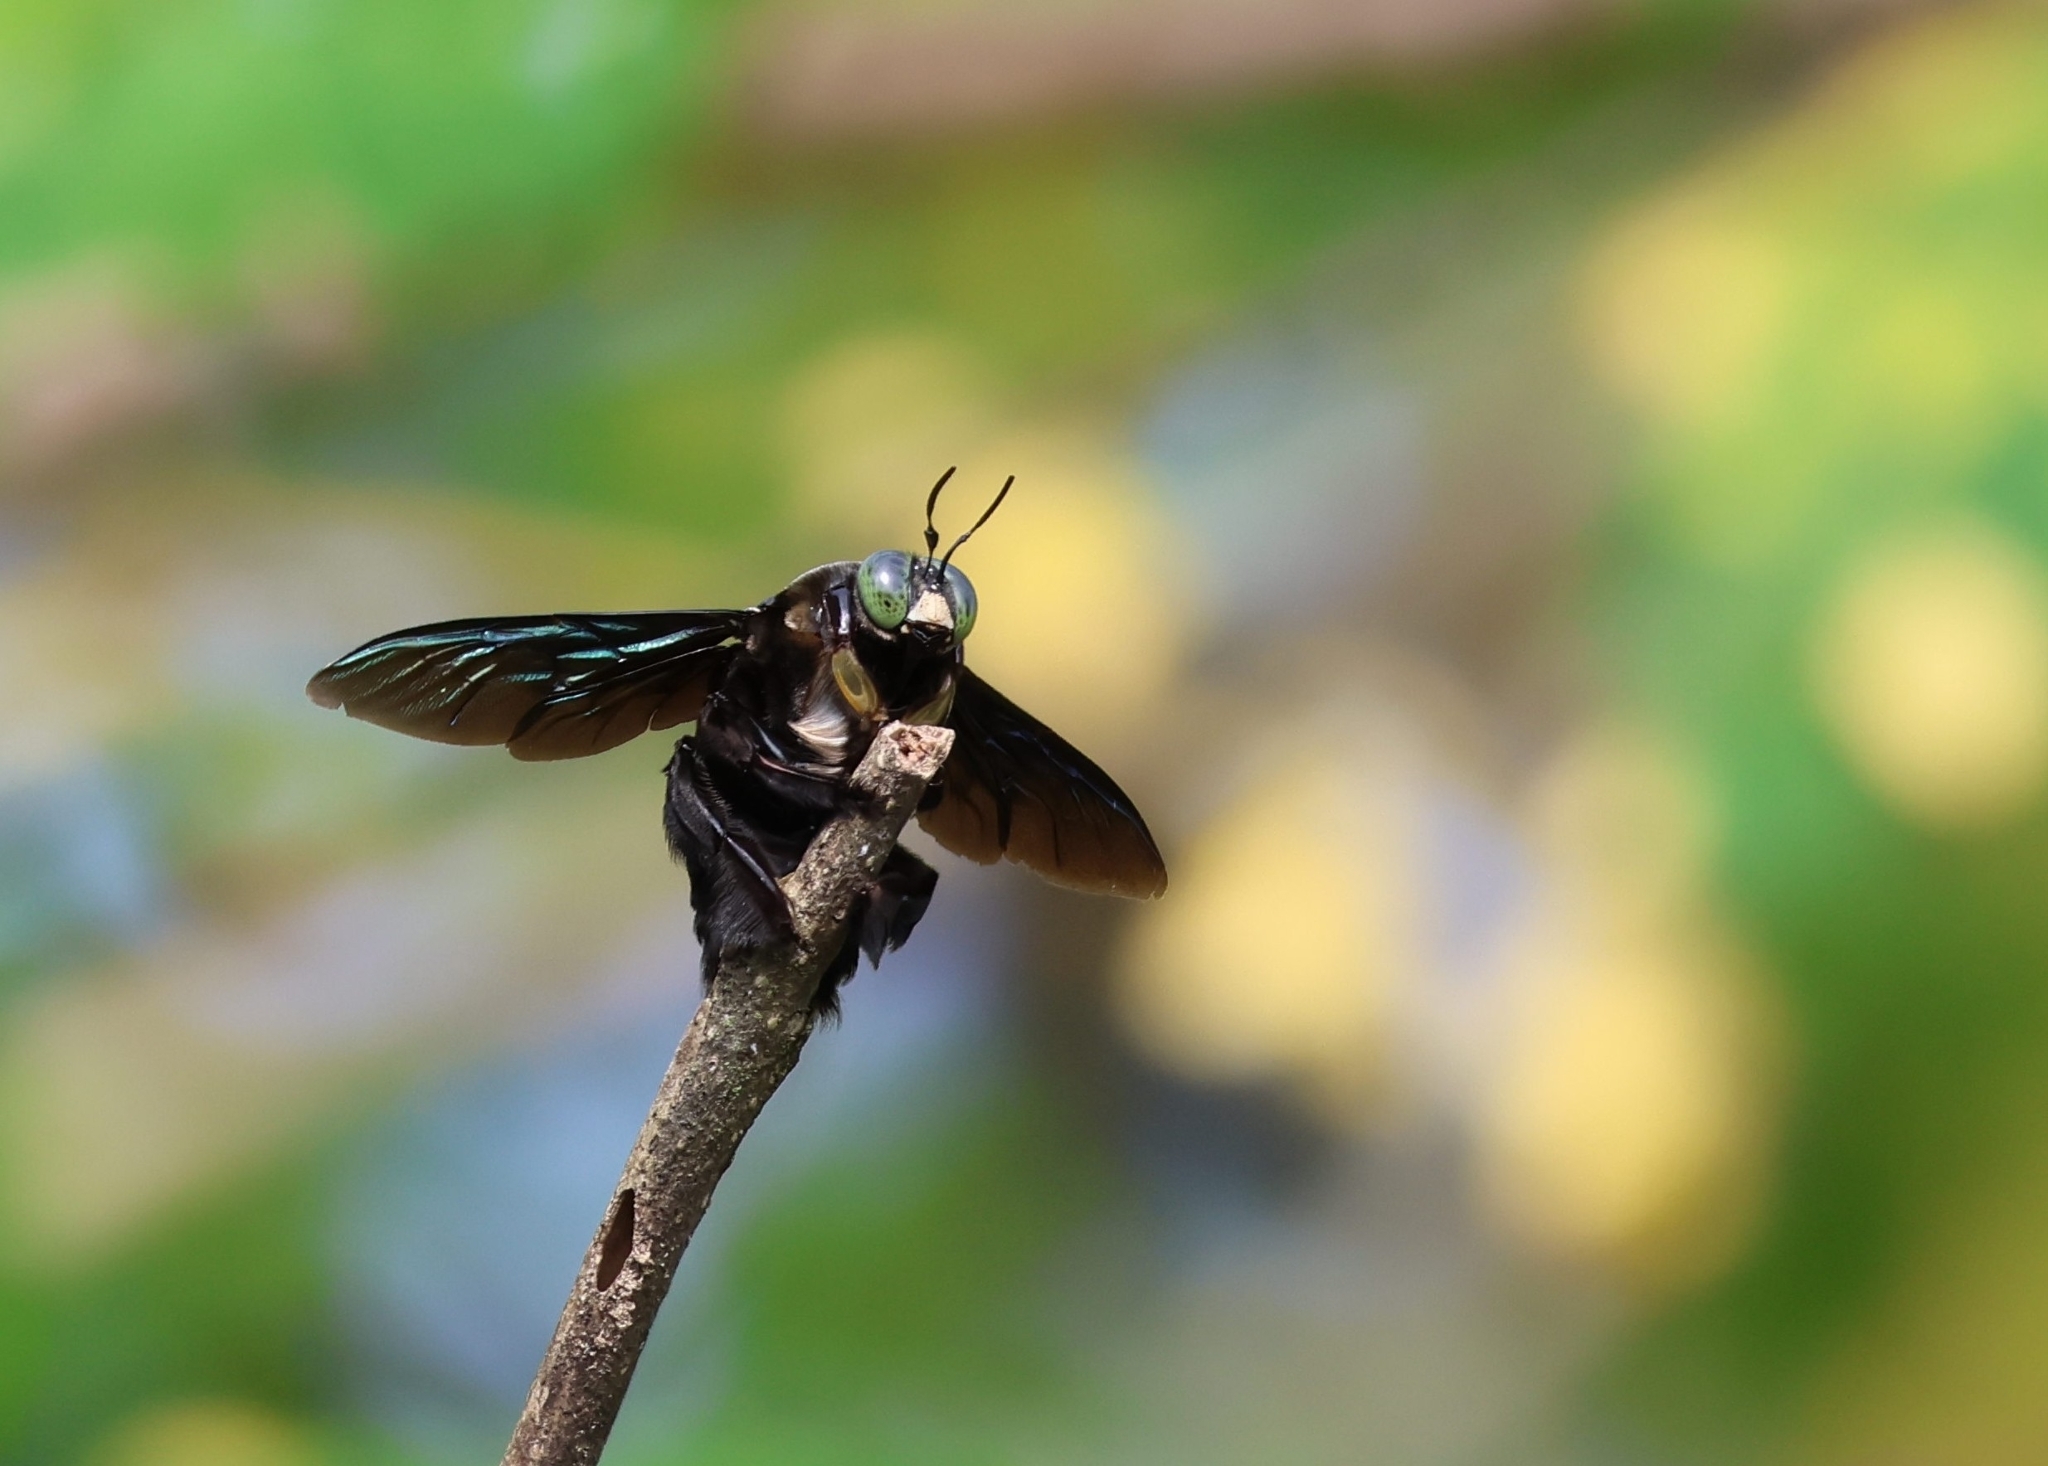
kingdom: Animalia
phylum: Arthropoda
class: Insecta
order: Hymenoptera
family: Apidae
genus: Xylocopa
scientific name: Xylocopa latipes
